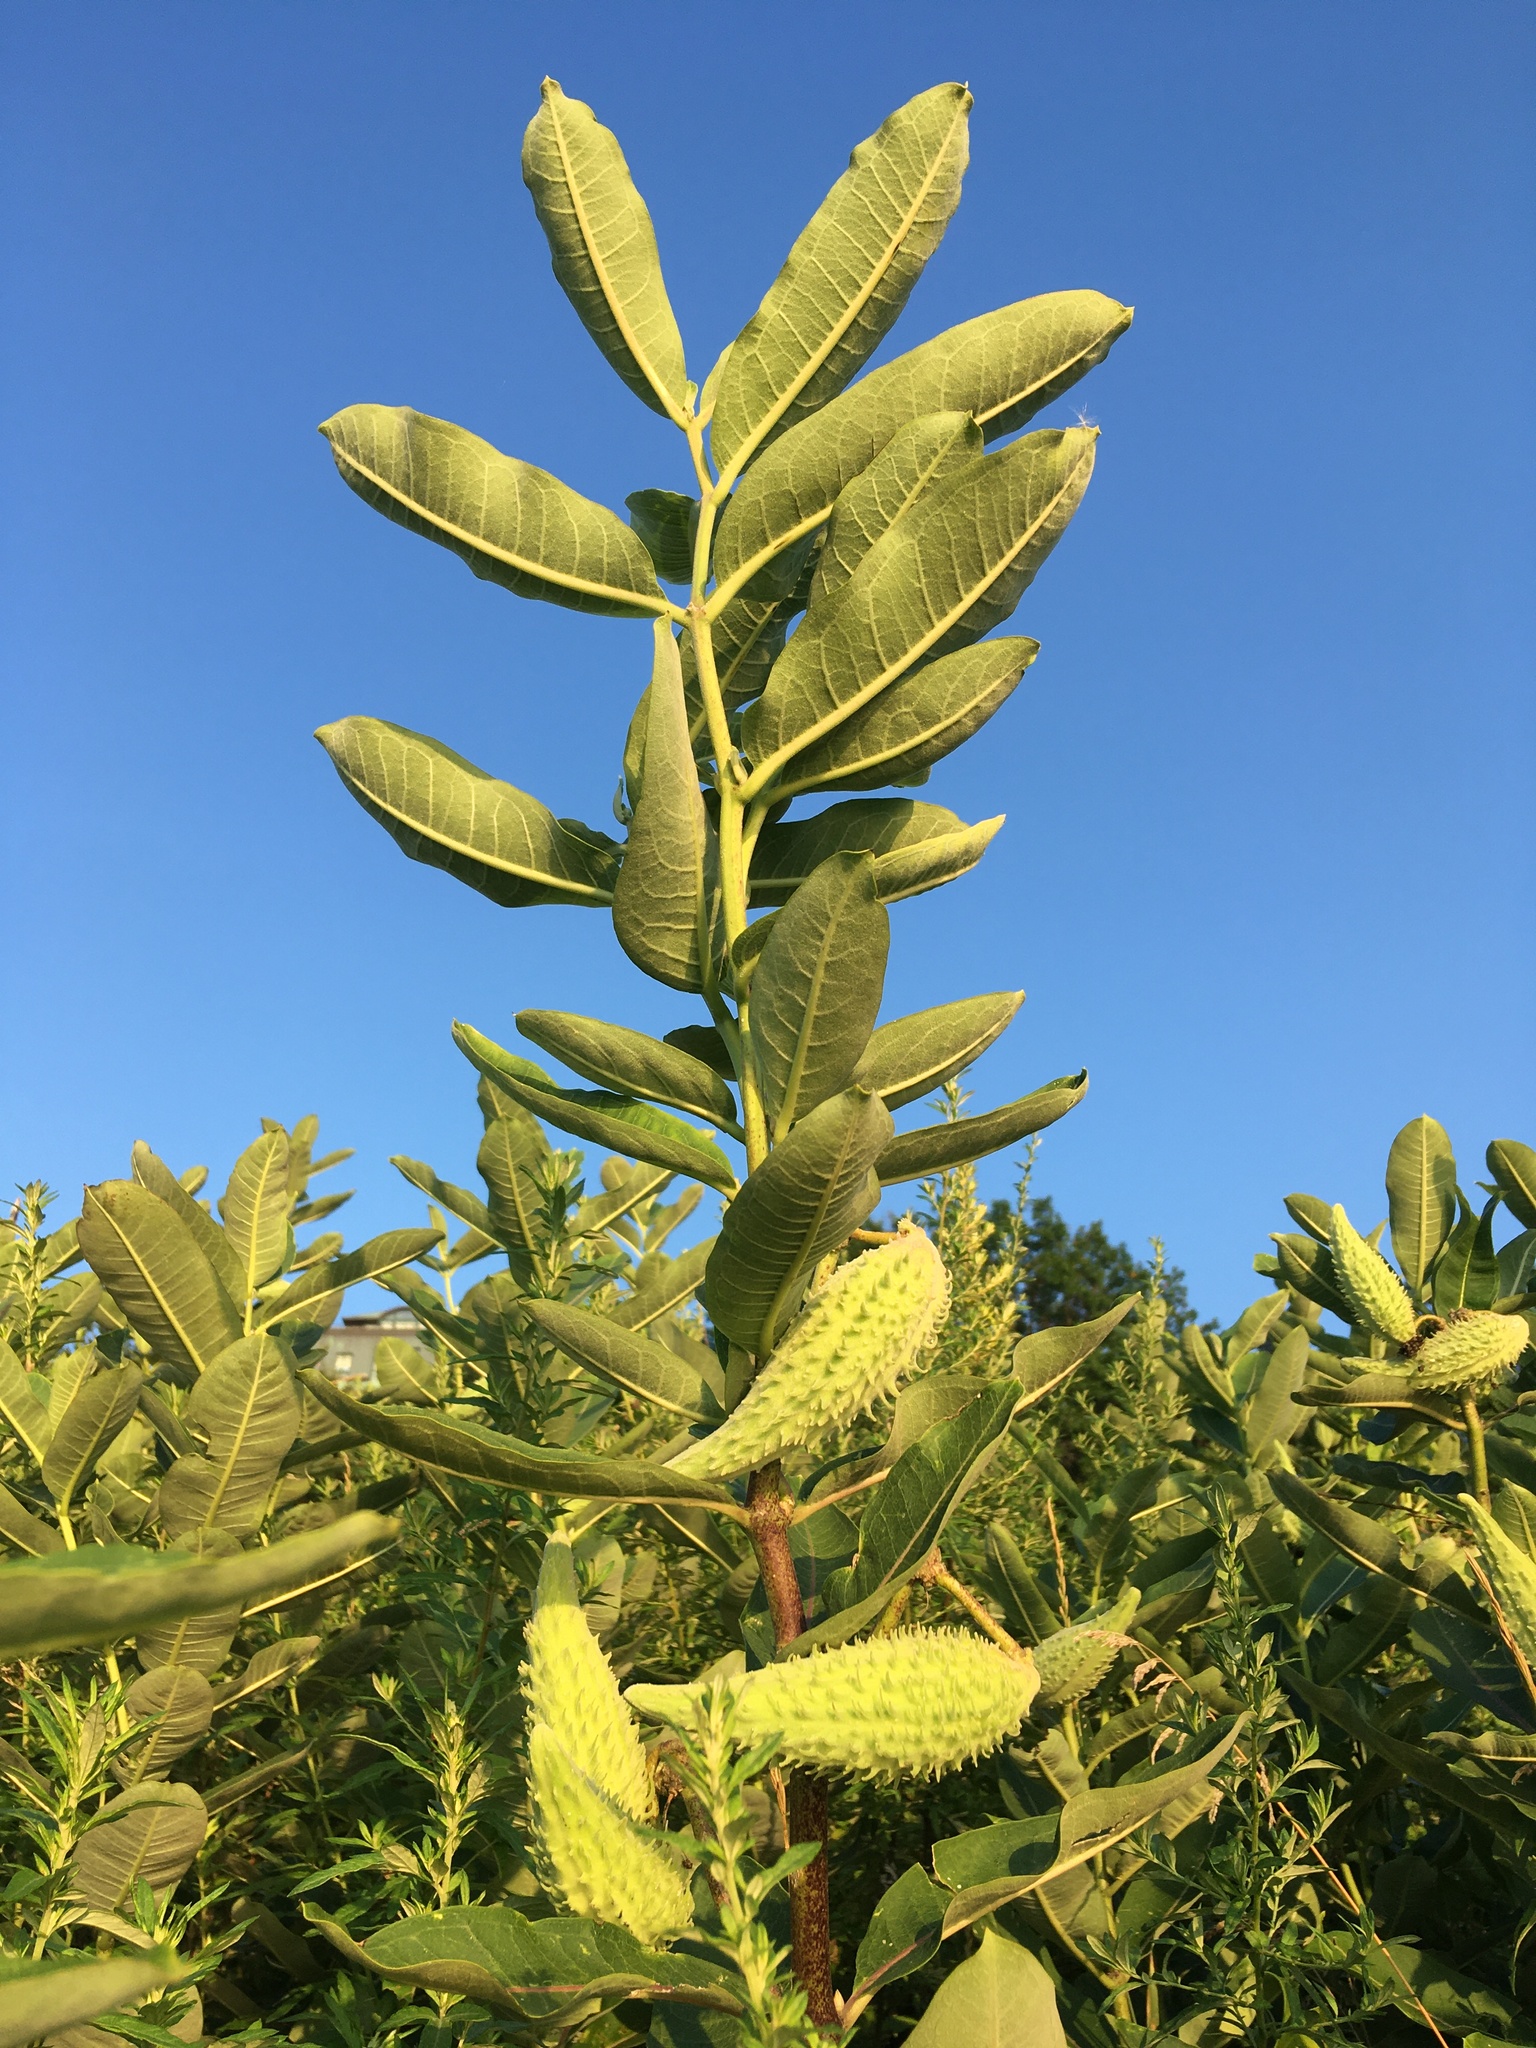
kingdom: Plantae
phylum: Tracheophyta
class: Magnoliopsida
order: Gentianales
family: Apocynaceae
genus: Asclepias
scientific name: Asclepias syriaca
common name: Common milkweed
